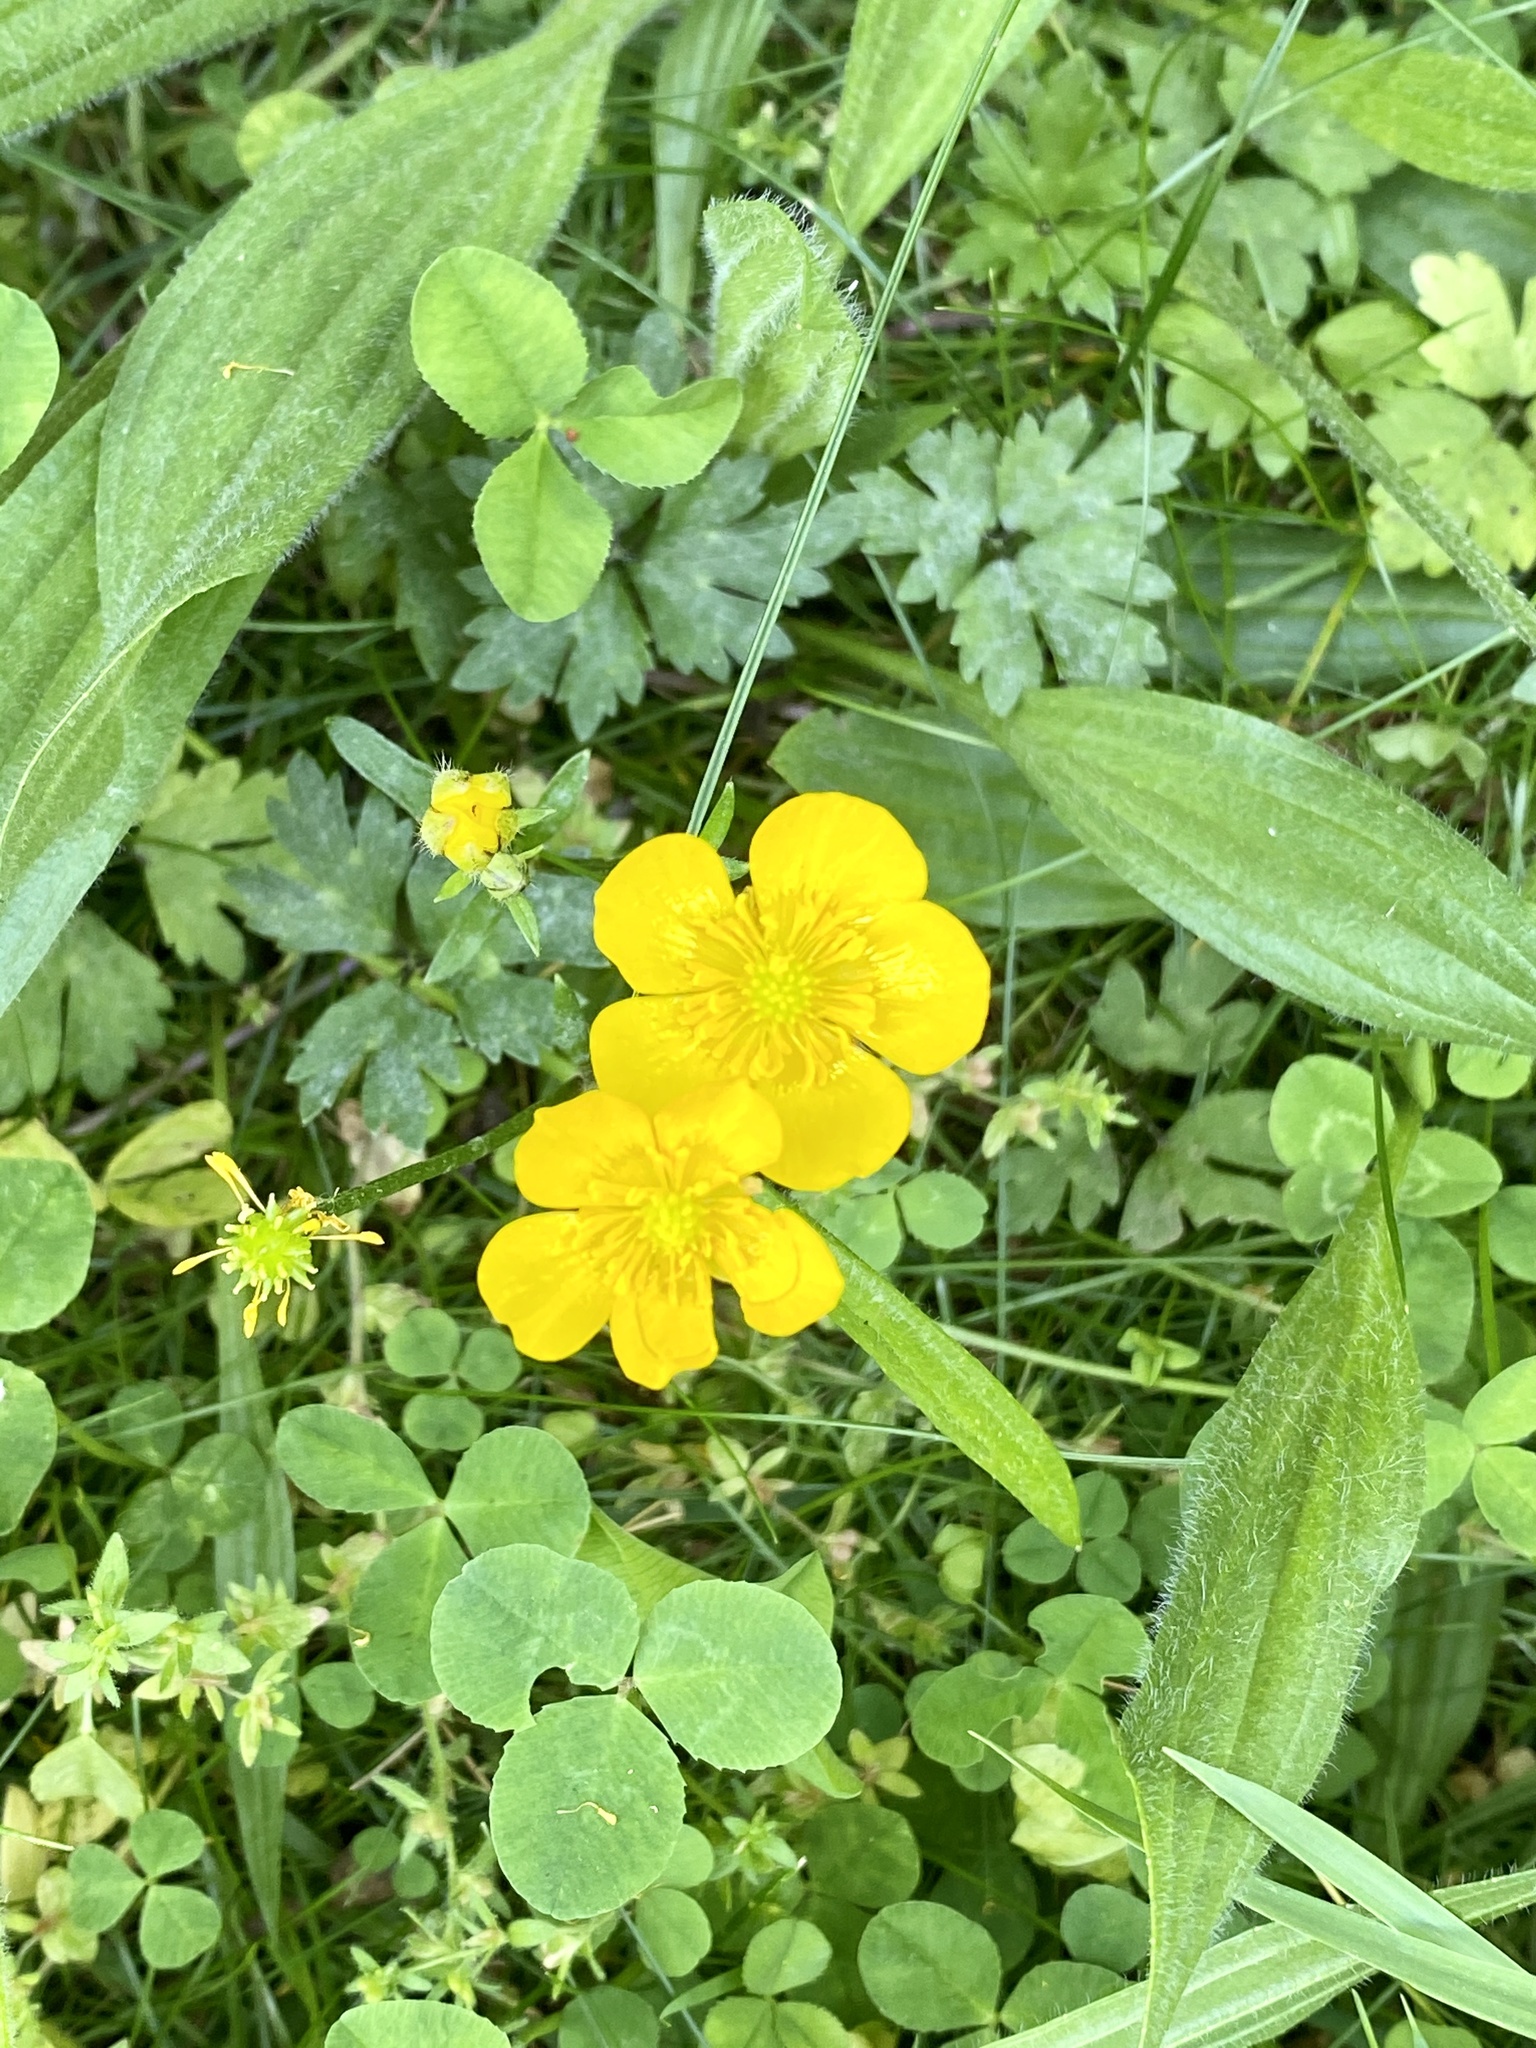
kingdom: Plantae
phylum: Tracheophyta
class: Magnoliopsida
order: Ranunculales
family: Ranunculaceae
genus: Ranunculus
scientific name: Ranunculus repens
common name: Creeping buttercup
